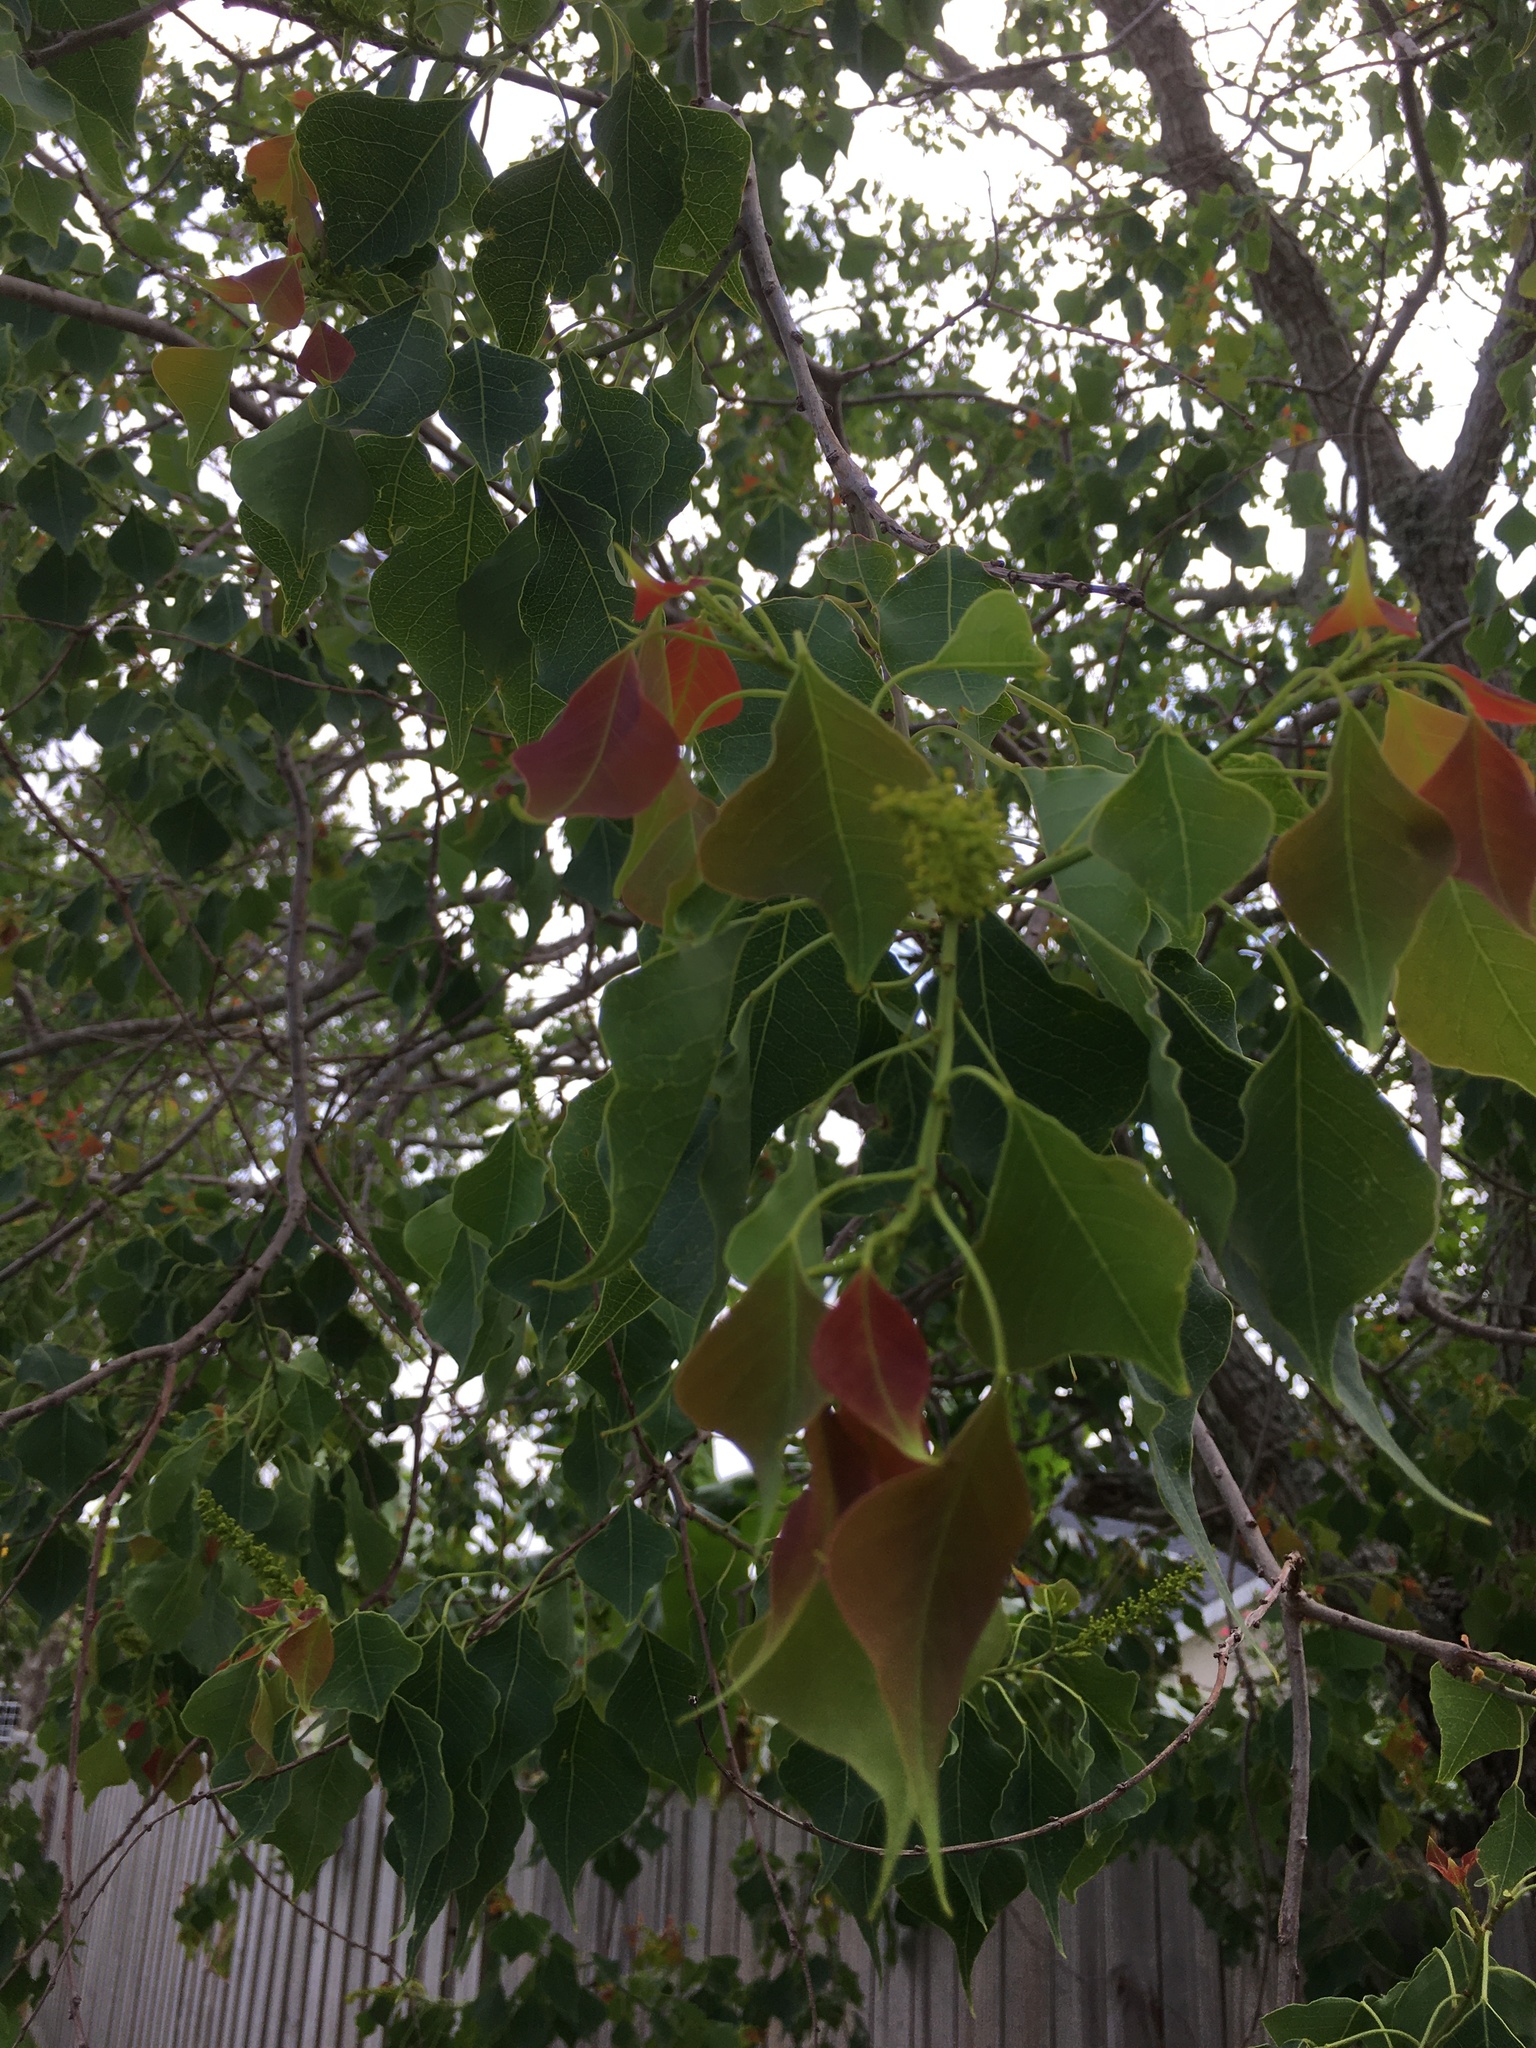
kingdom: Plantae
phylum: Tracheophyta
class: Magnoliopsida
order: Malpighiales
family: Euphorbiaceae
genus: Triadica
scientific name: Triadica sebifera
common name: Chinese tallow
